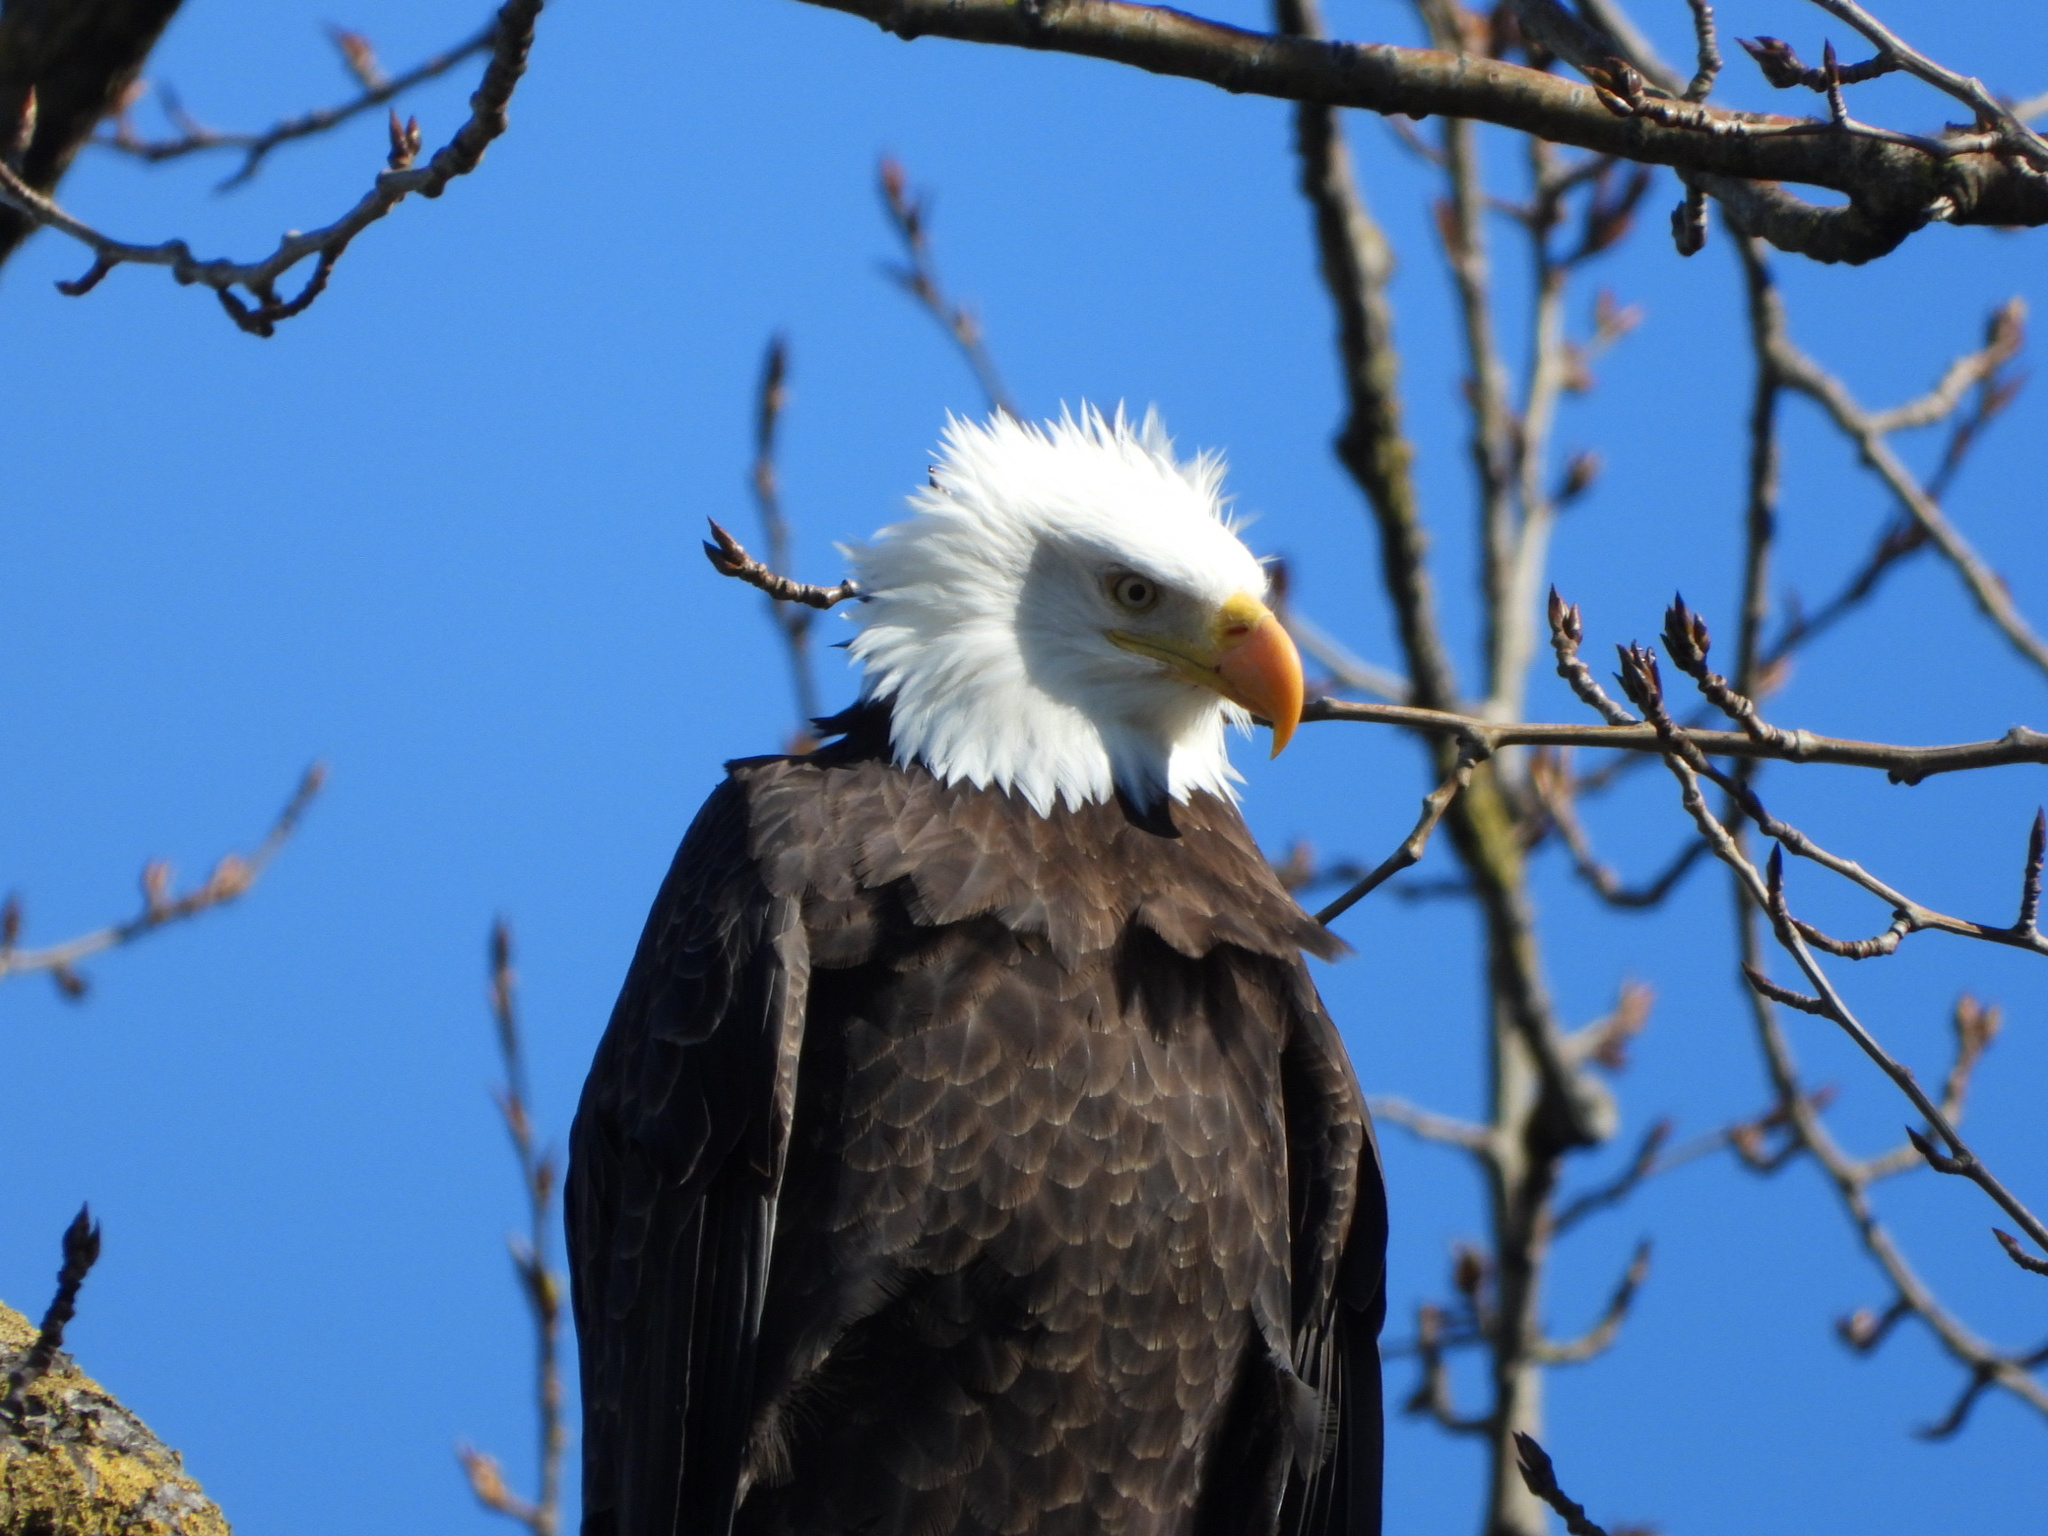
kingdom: Animalia
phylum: Chordata
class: Aves
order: Accipitriformes
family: Accipitridae
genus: Haliaeetus
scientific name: Haliaeetus leucocephalus
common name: Bald eagle
